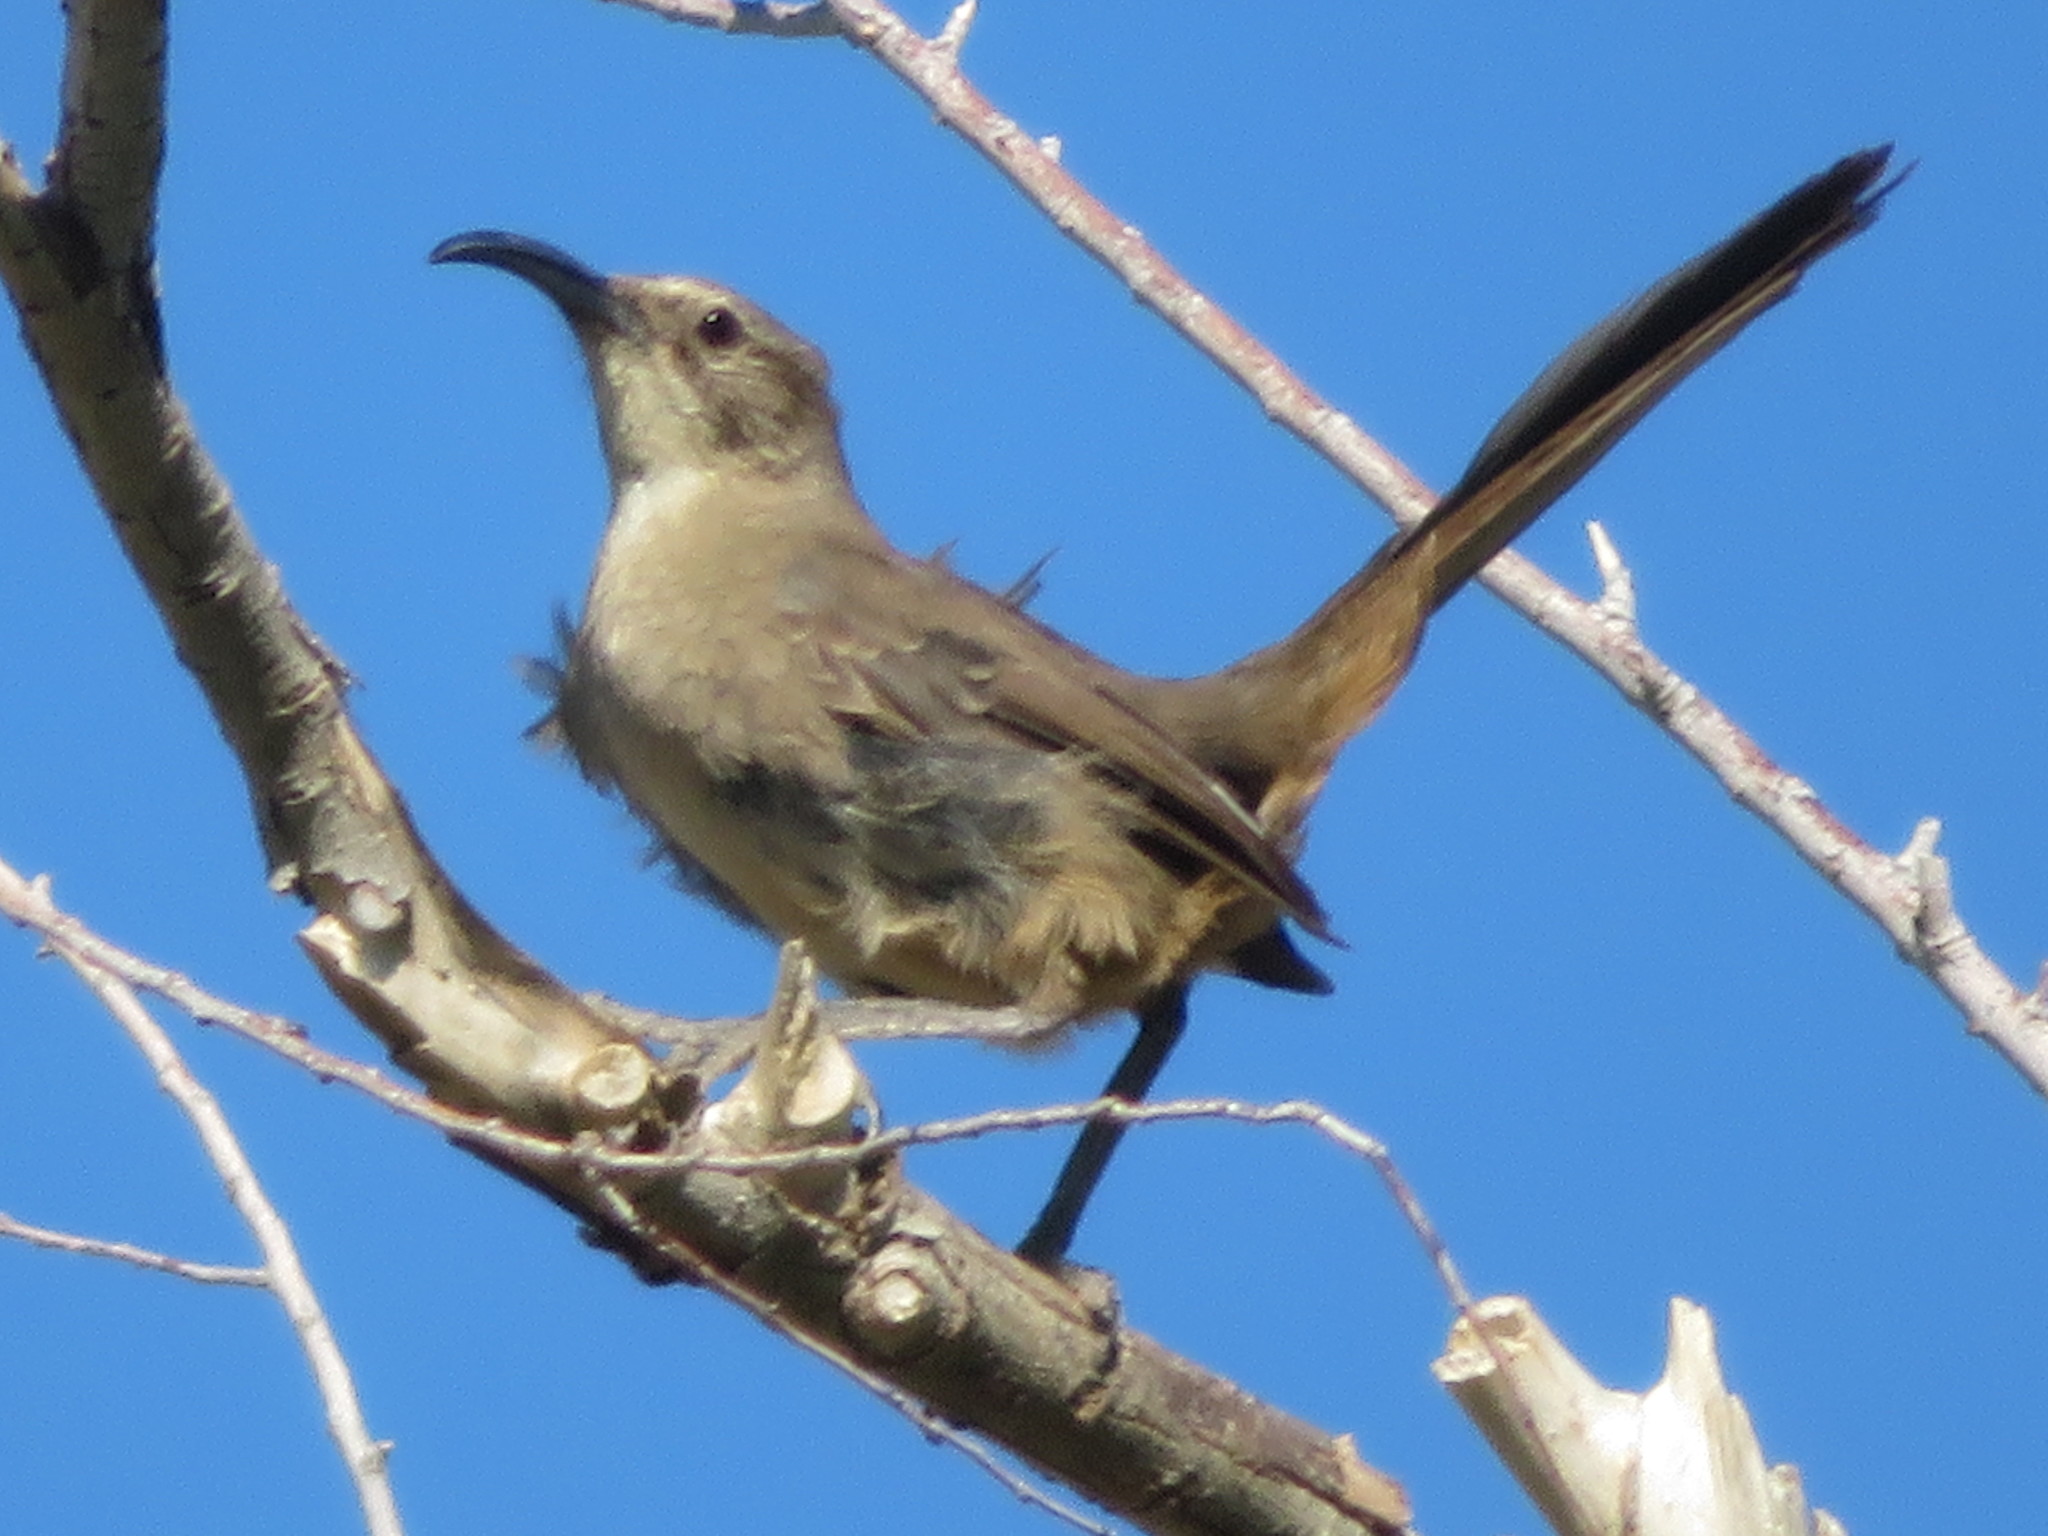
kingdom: Animalia
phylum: Chordata
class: Aves
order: Passeriformes
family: Mimidae
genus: Toxostoma
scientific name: Toxostoma redivivum
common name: California thrasher
